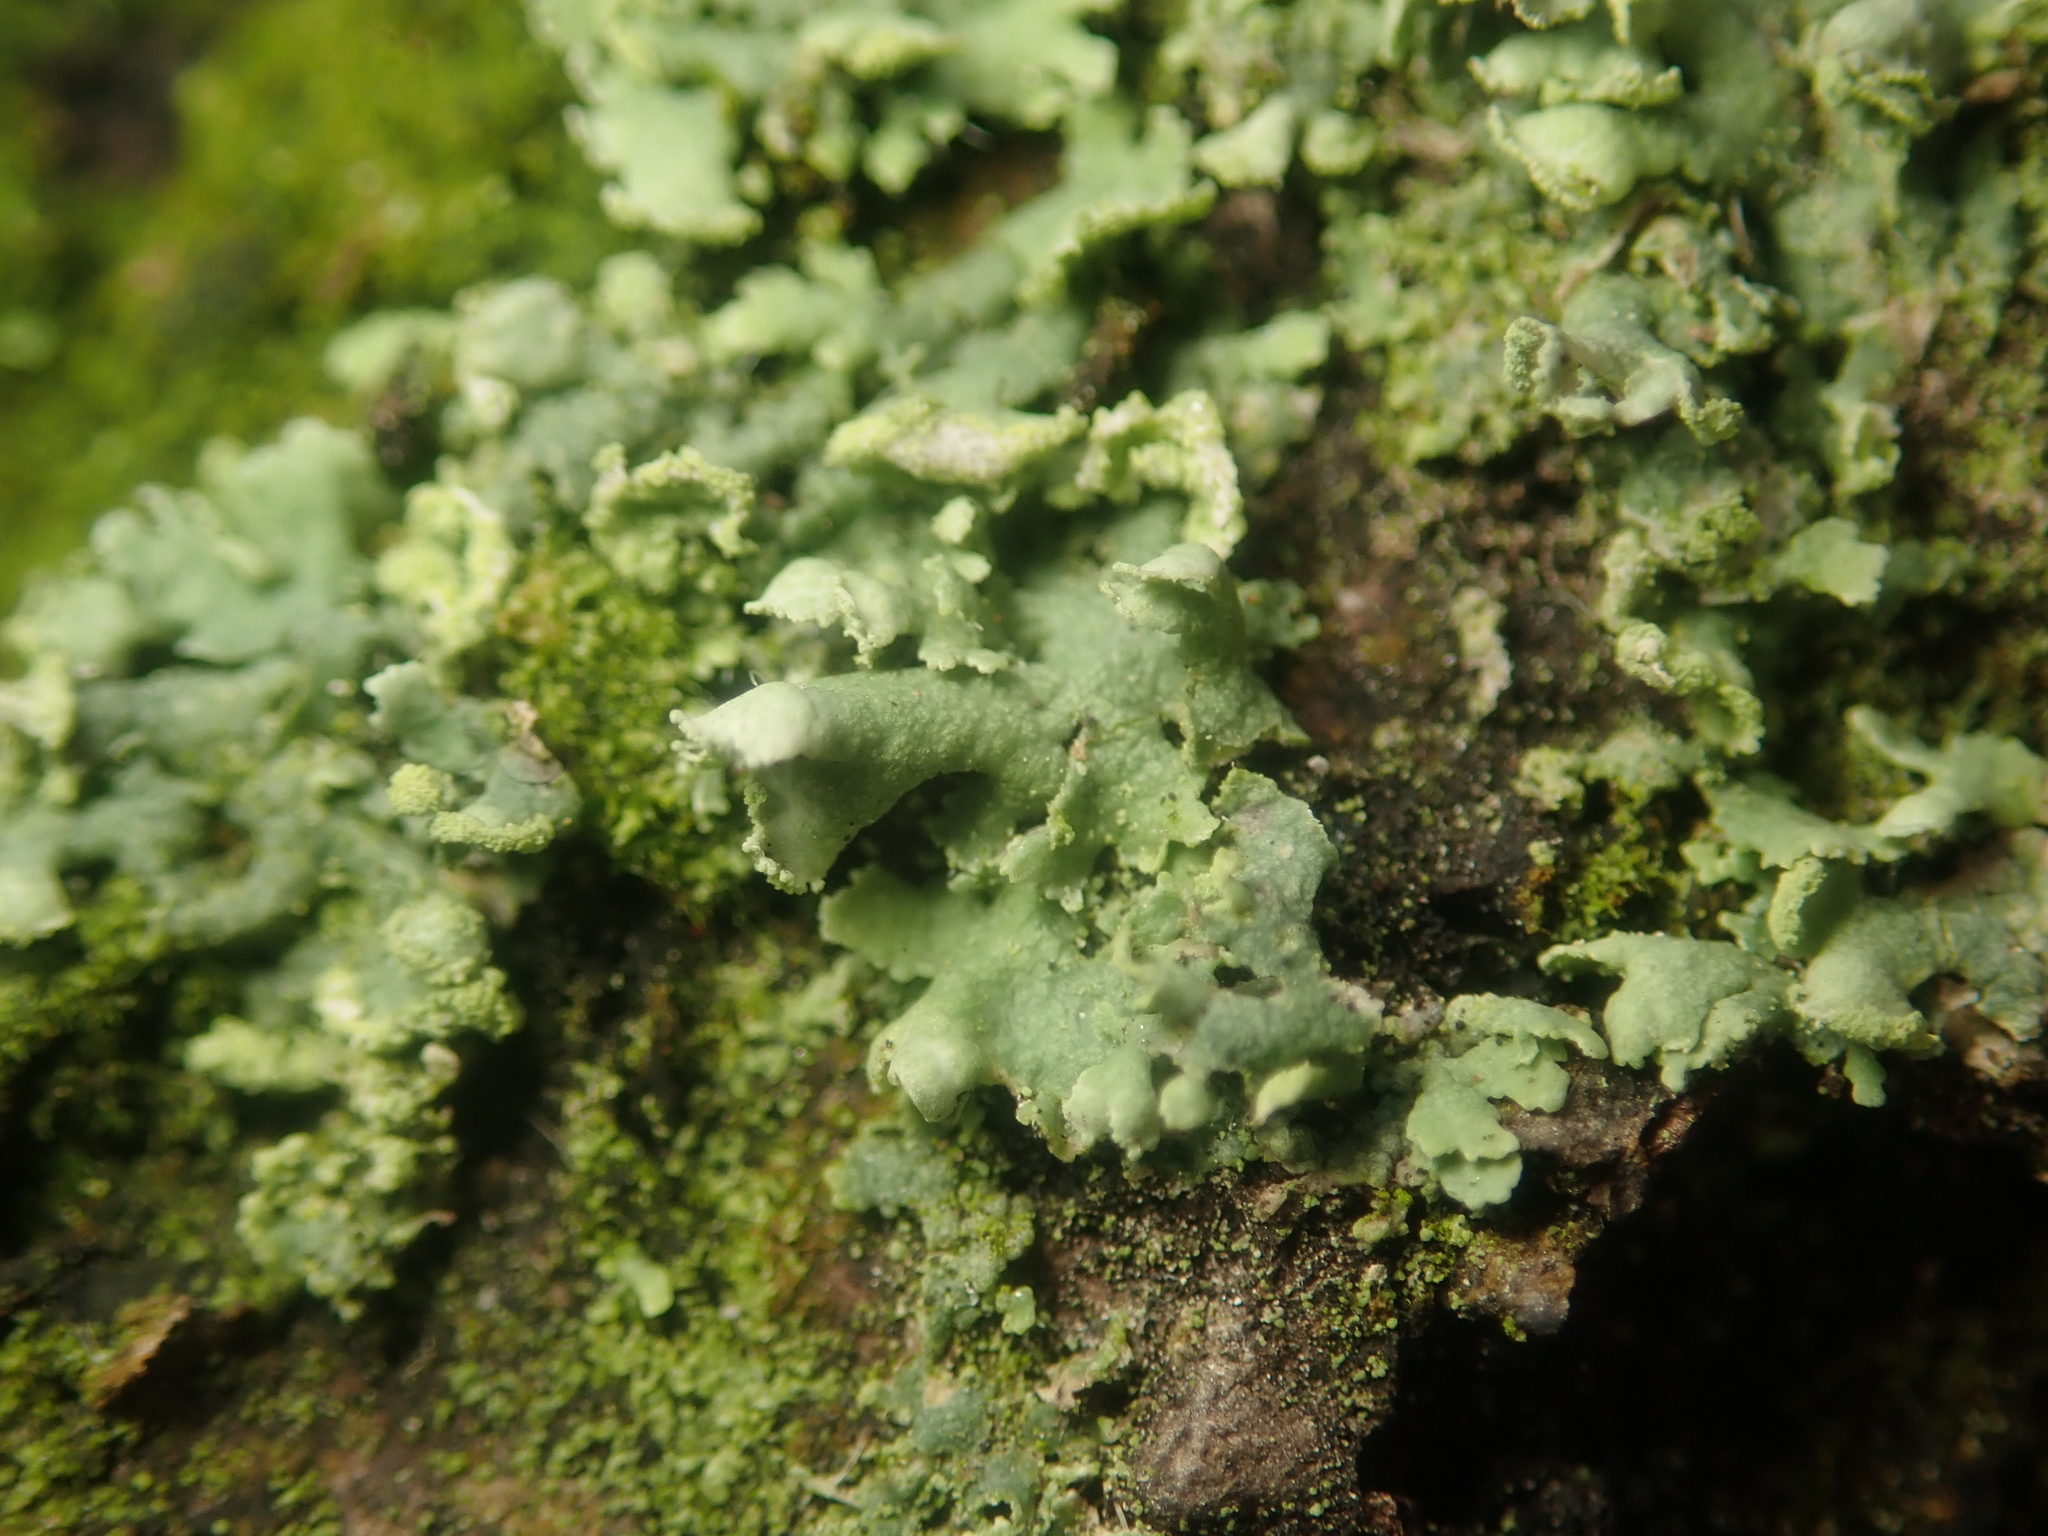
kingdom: Fungi
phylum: Ascomycota
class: Lecanoromycetes
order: Caliciales
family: Physciaceae
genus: Physcia
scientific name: Physcia adscendens
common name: Hooded rosette lichen
